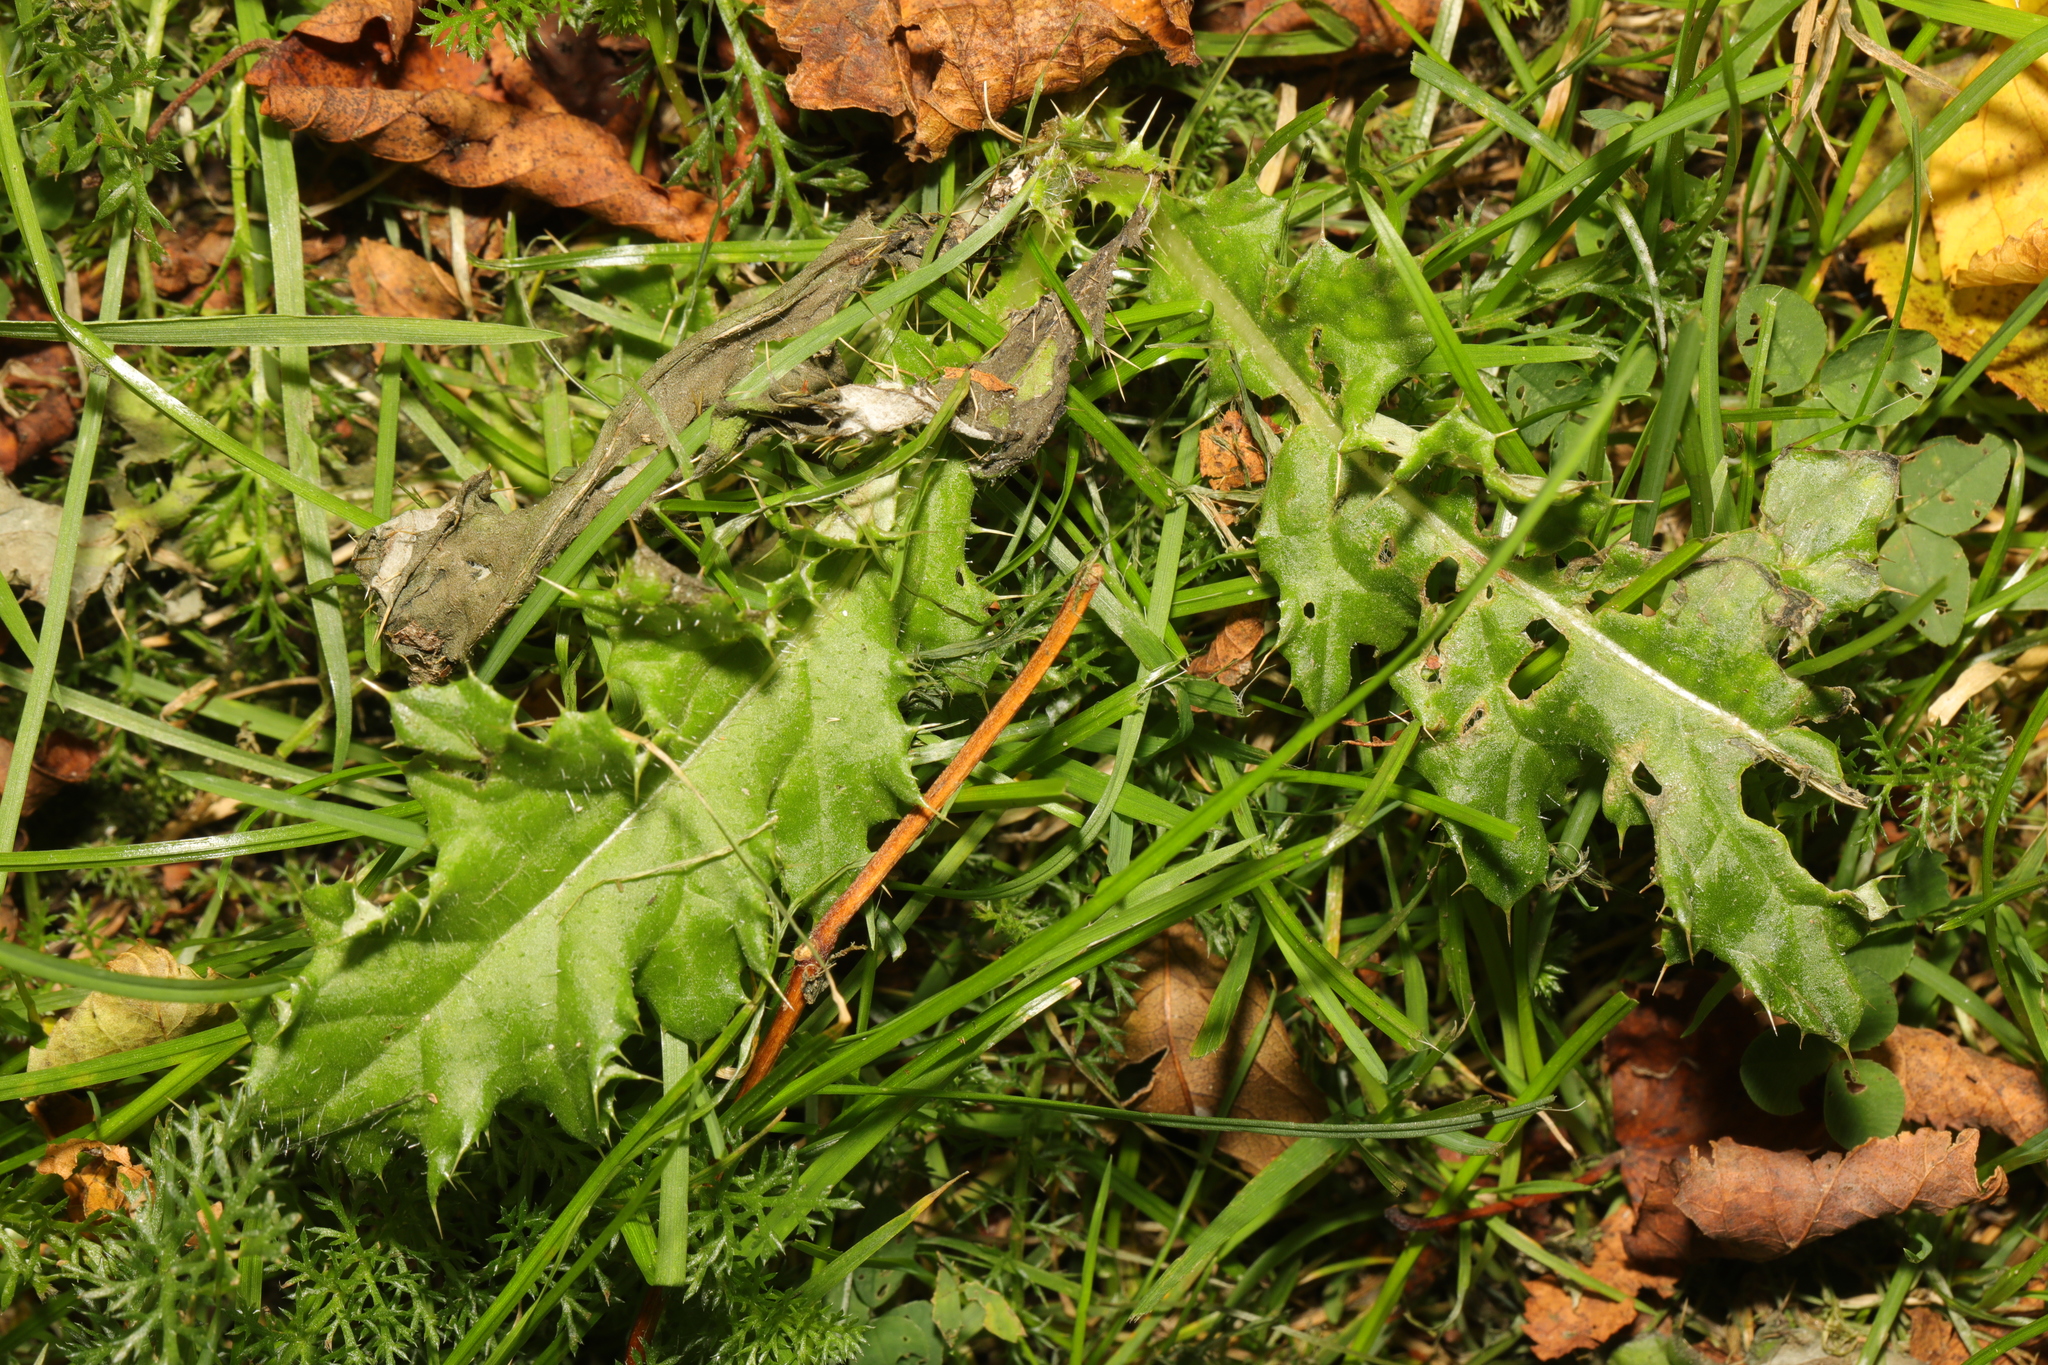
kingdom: Plantae
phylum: Tracheophyta
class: Magnoliopsida
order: Asterales
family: Asteraceae
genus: Cirsium
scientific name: Cirsium arvense
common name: Creeping thistle
